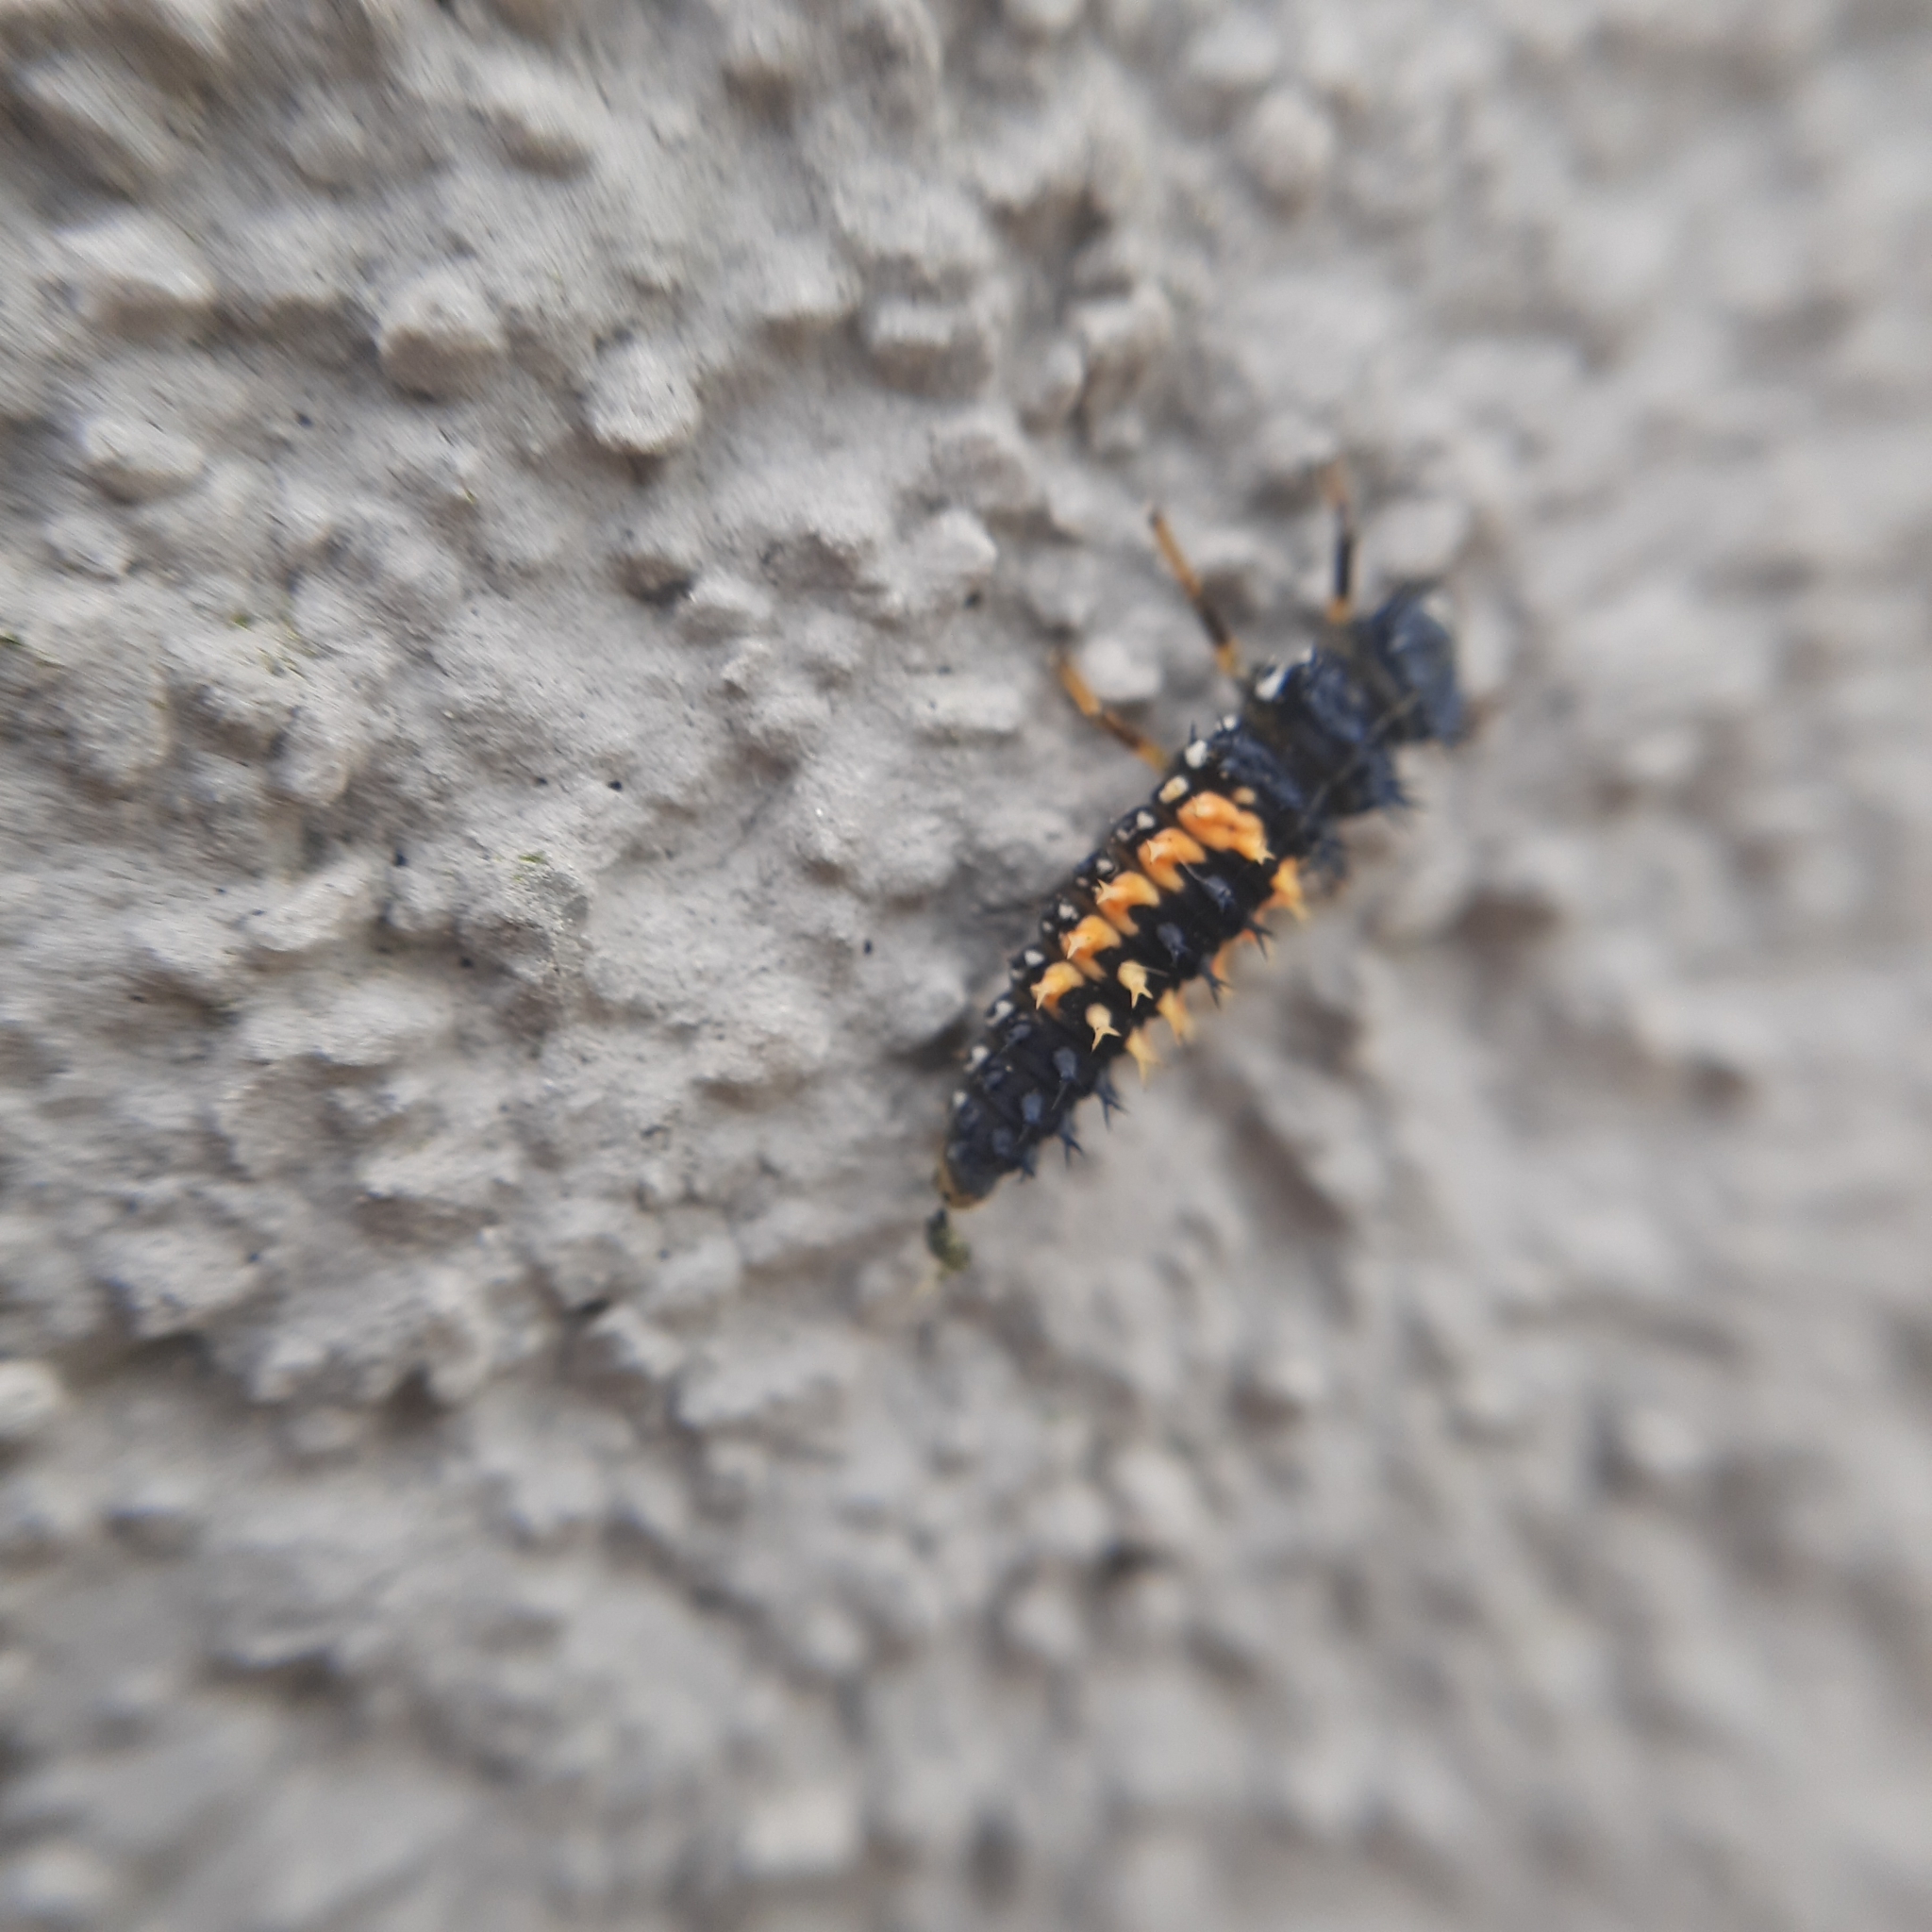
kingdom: Animalia
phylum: Arthropoda
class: Insecta
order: Coleoptera
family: Coccinellidae
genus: Harmonia
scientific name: Harmonia axyridis
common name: Harlequin ladybird
